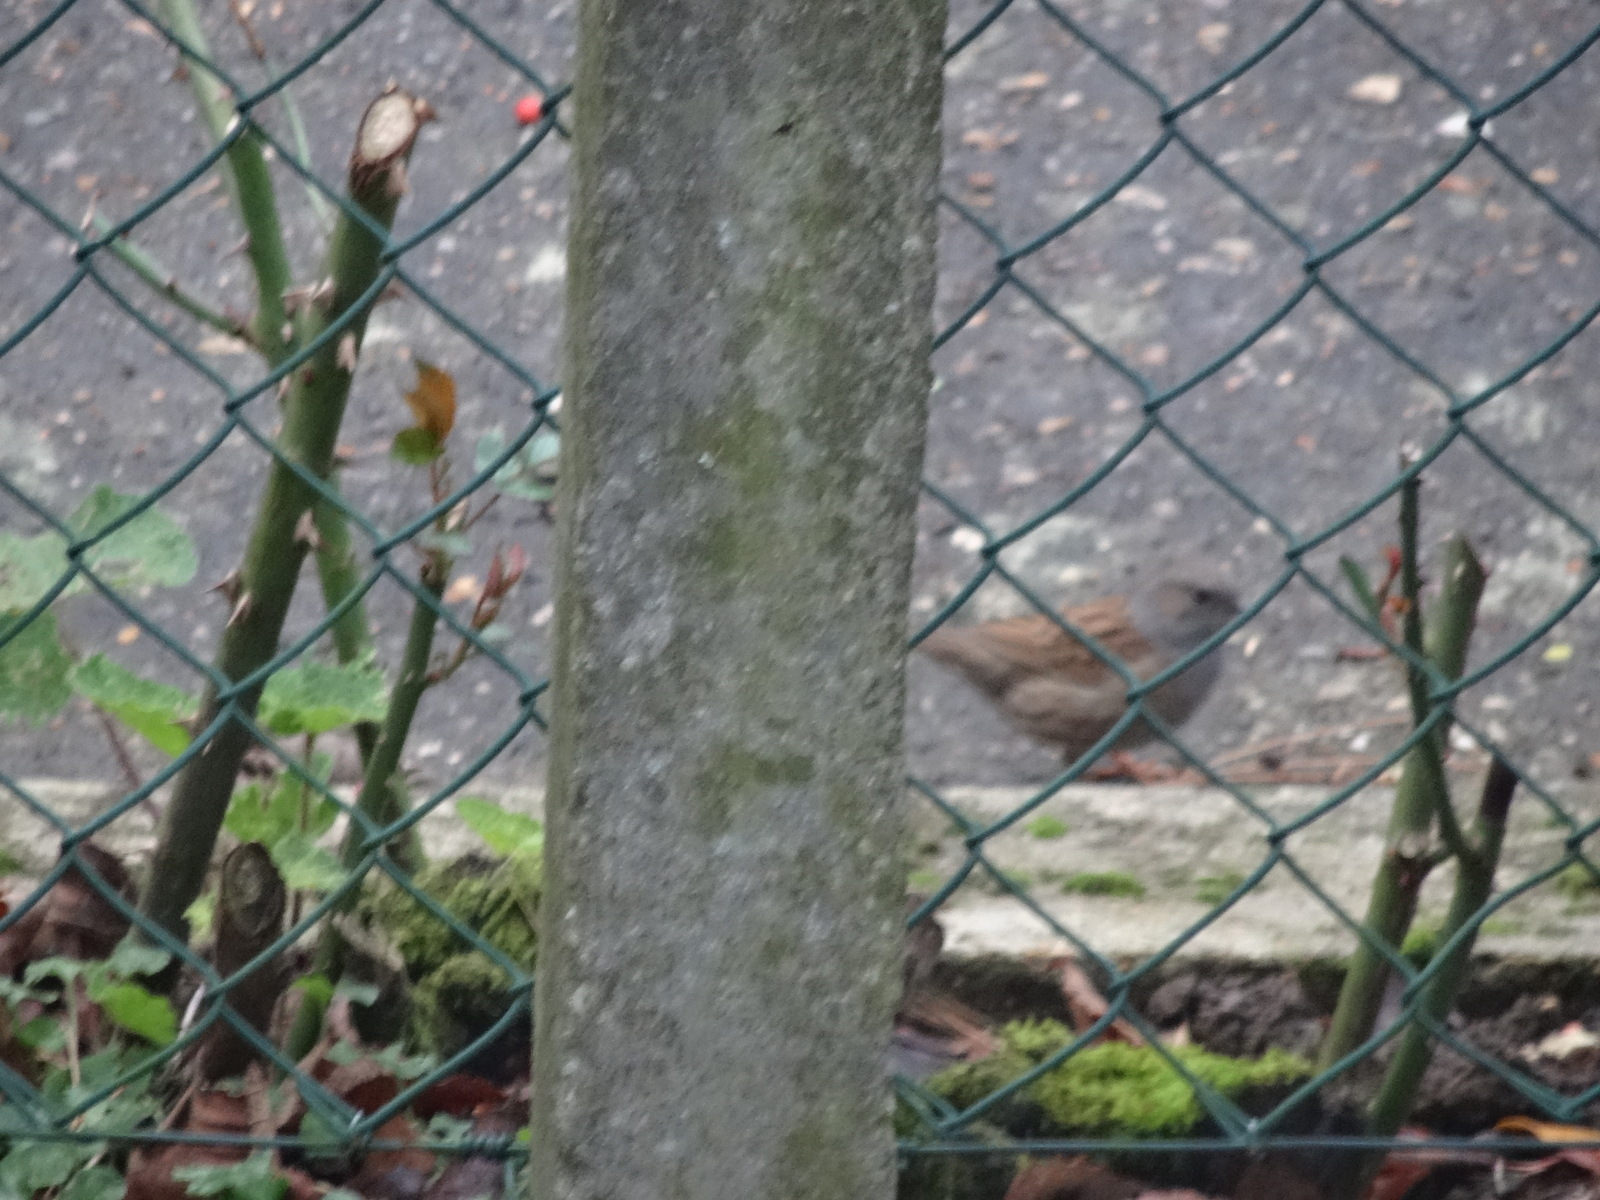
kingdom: Animalia
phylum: Chordata
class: Aves
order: Passeriformes
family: Prunellidae
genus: Prunella
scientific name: Prunella modularis
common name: Dunnock
